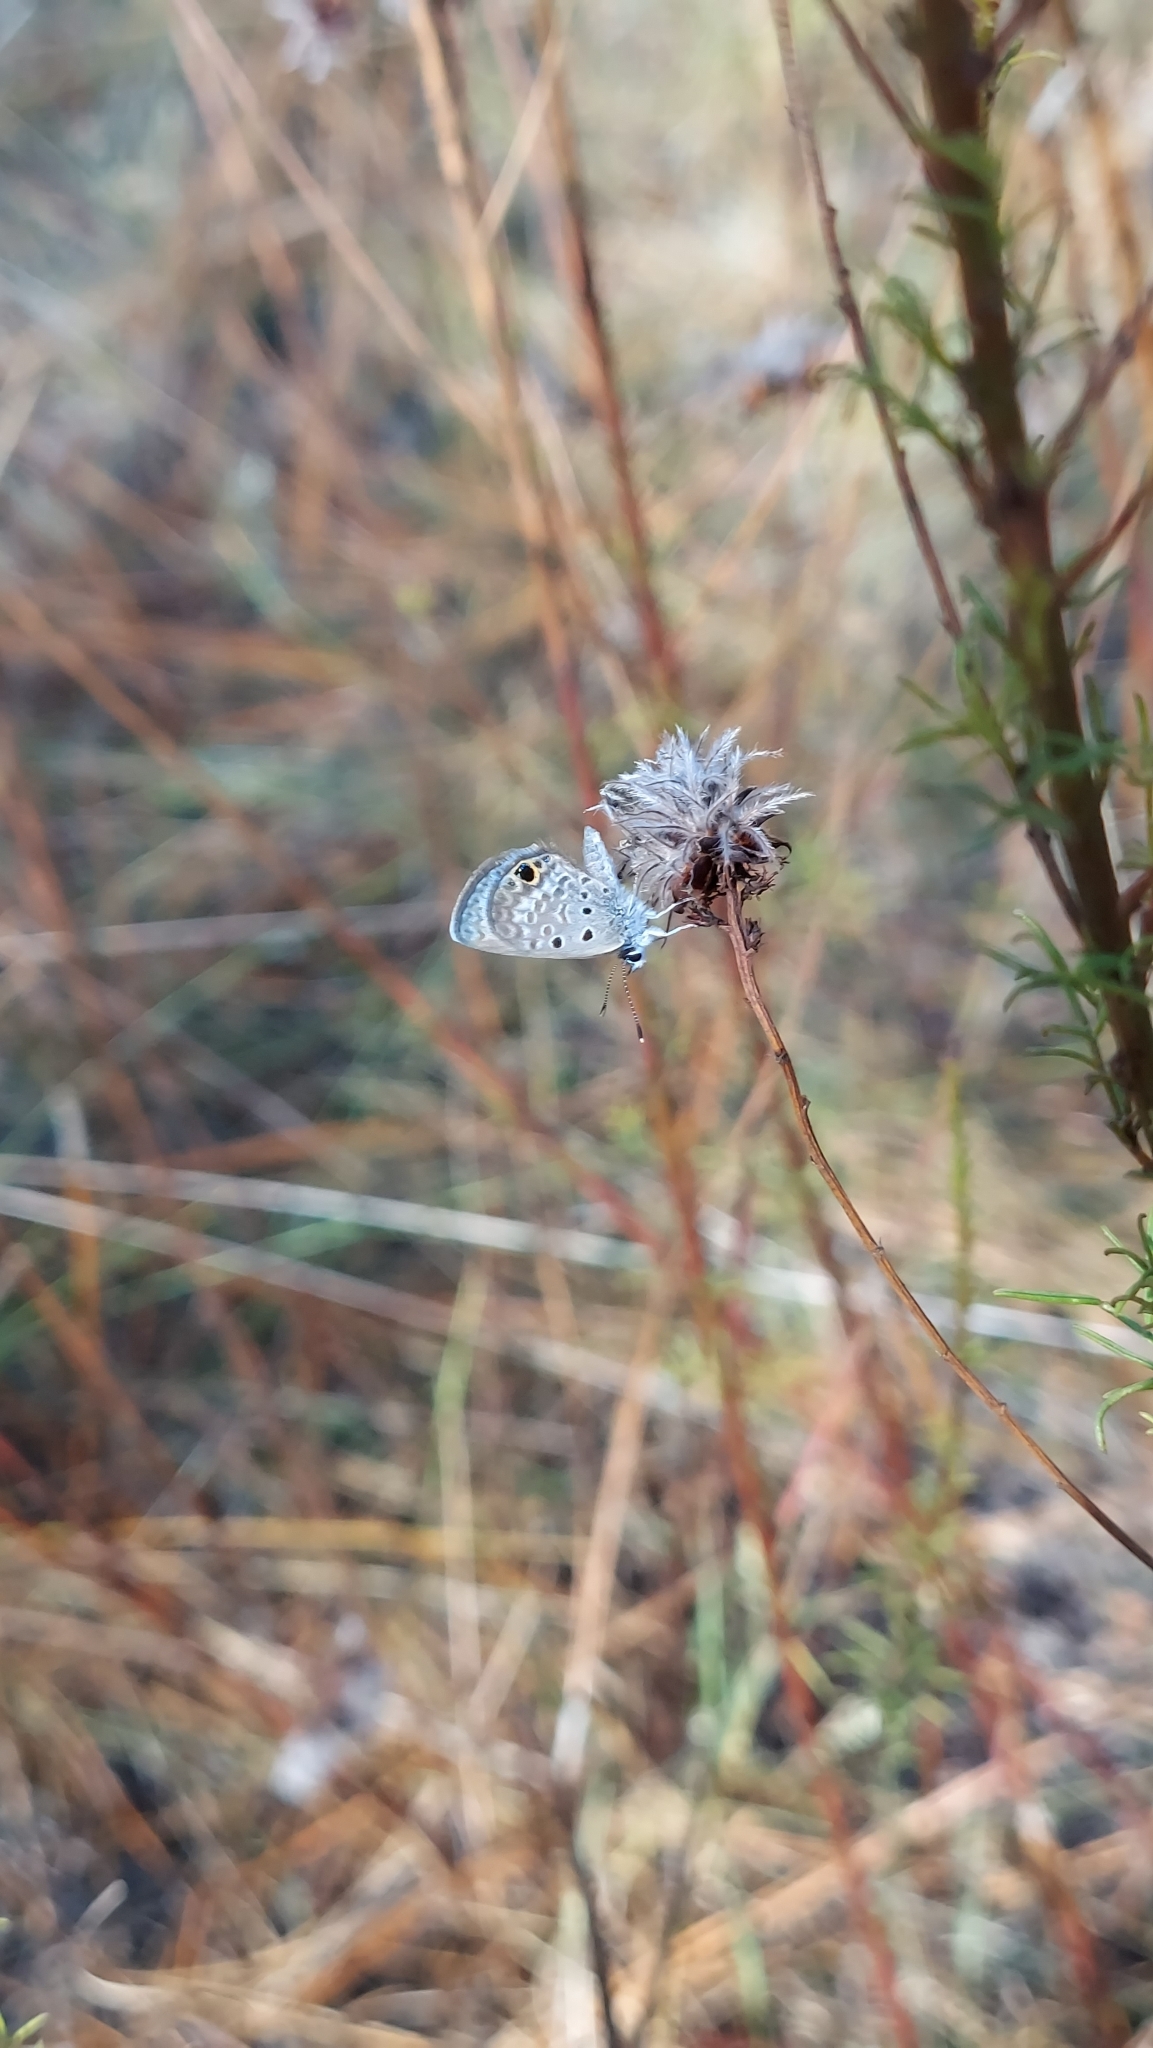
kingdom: Animalia
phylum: Arthropoda
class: Insecta
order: Lepidoptera
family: Lycaenidae
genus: Hemiargus
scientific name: Hemiargus ceraunus
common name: Ceraunus blue
